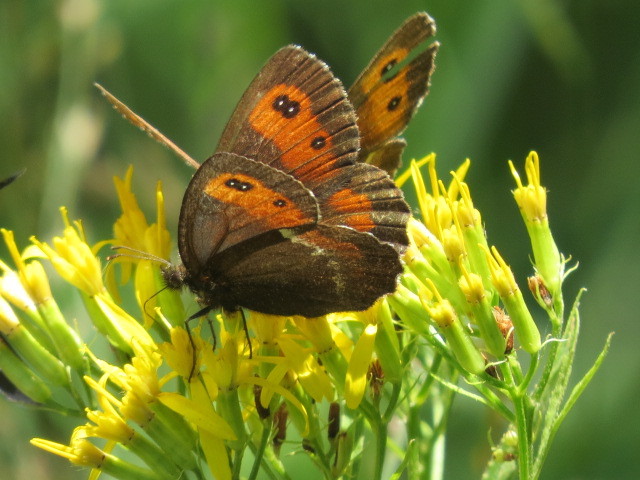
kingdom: Animalia
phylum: Arthropoda
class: Insecta
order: Lepidoptera
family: Nymphalidae
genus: Erebia
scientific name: Erebia ligea
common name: Arran brown
